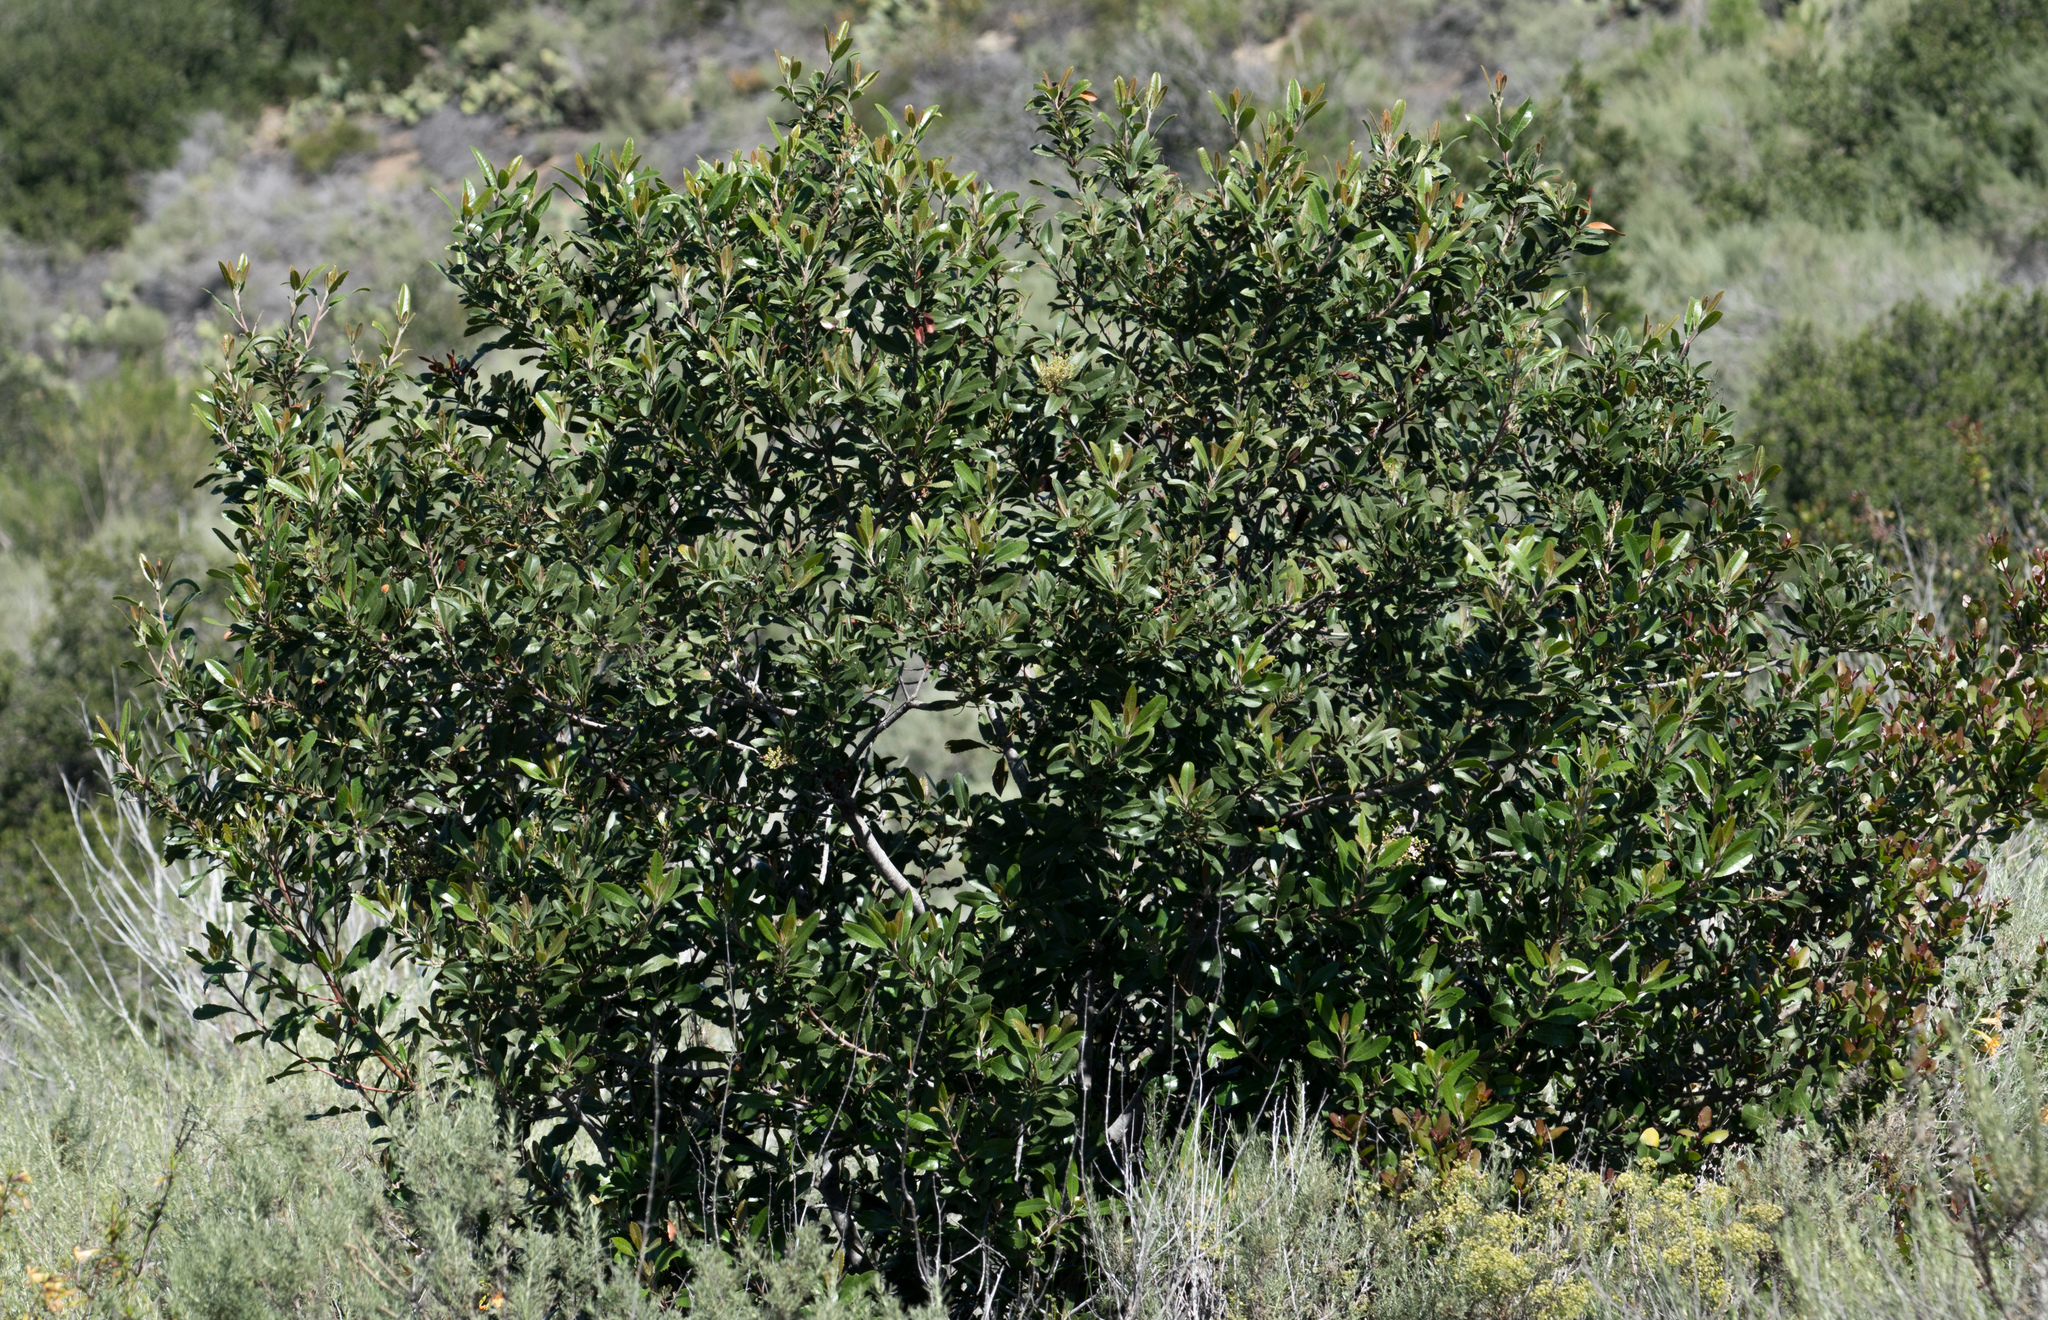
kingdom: Plantae
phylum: Tracheophyta
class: Magnoliopsida
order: Rosales
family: Rosaceae
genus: Heteromeles
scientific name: Heteromeles arbutifolia
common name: California-holly
